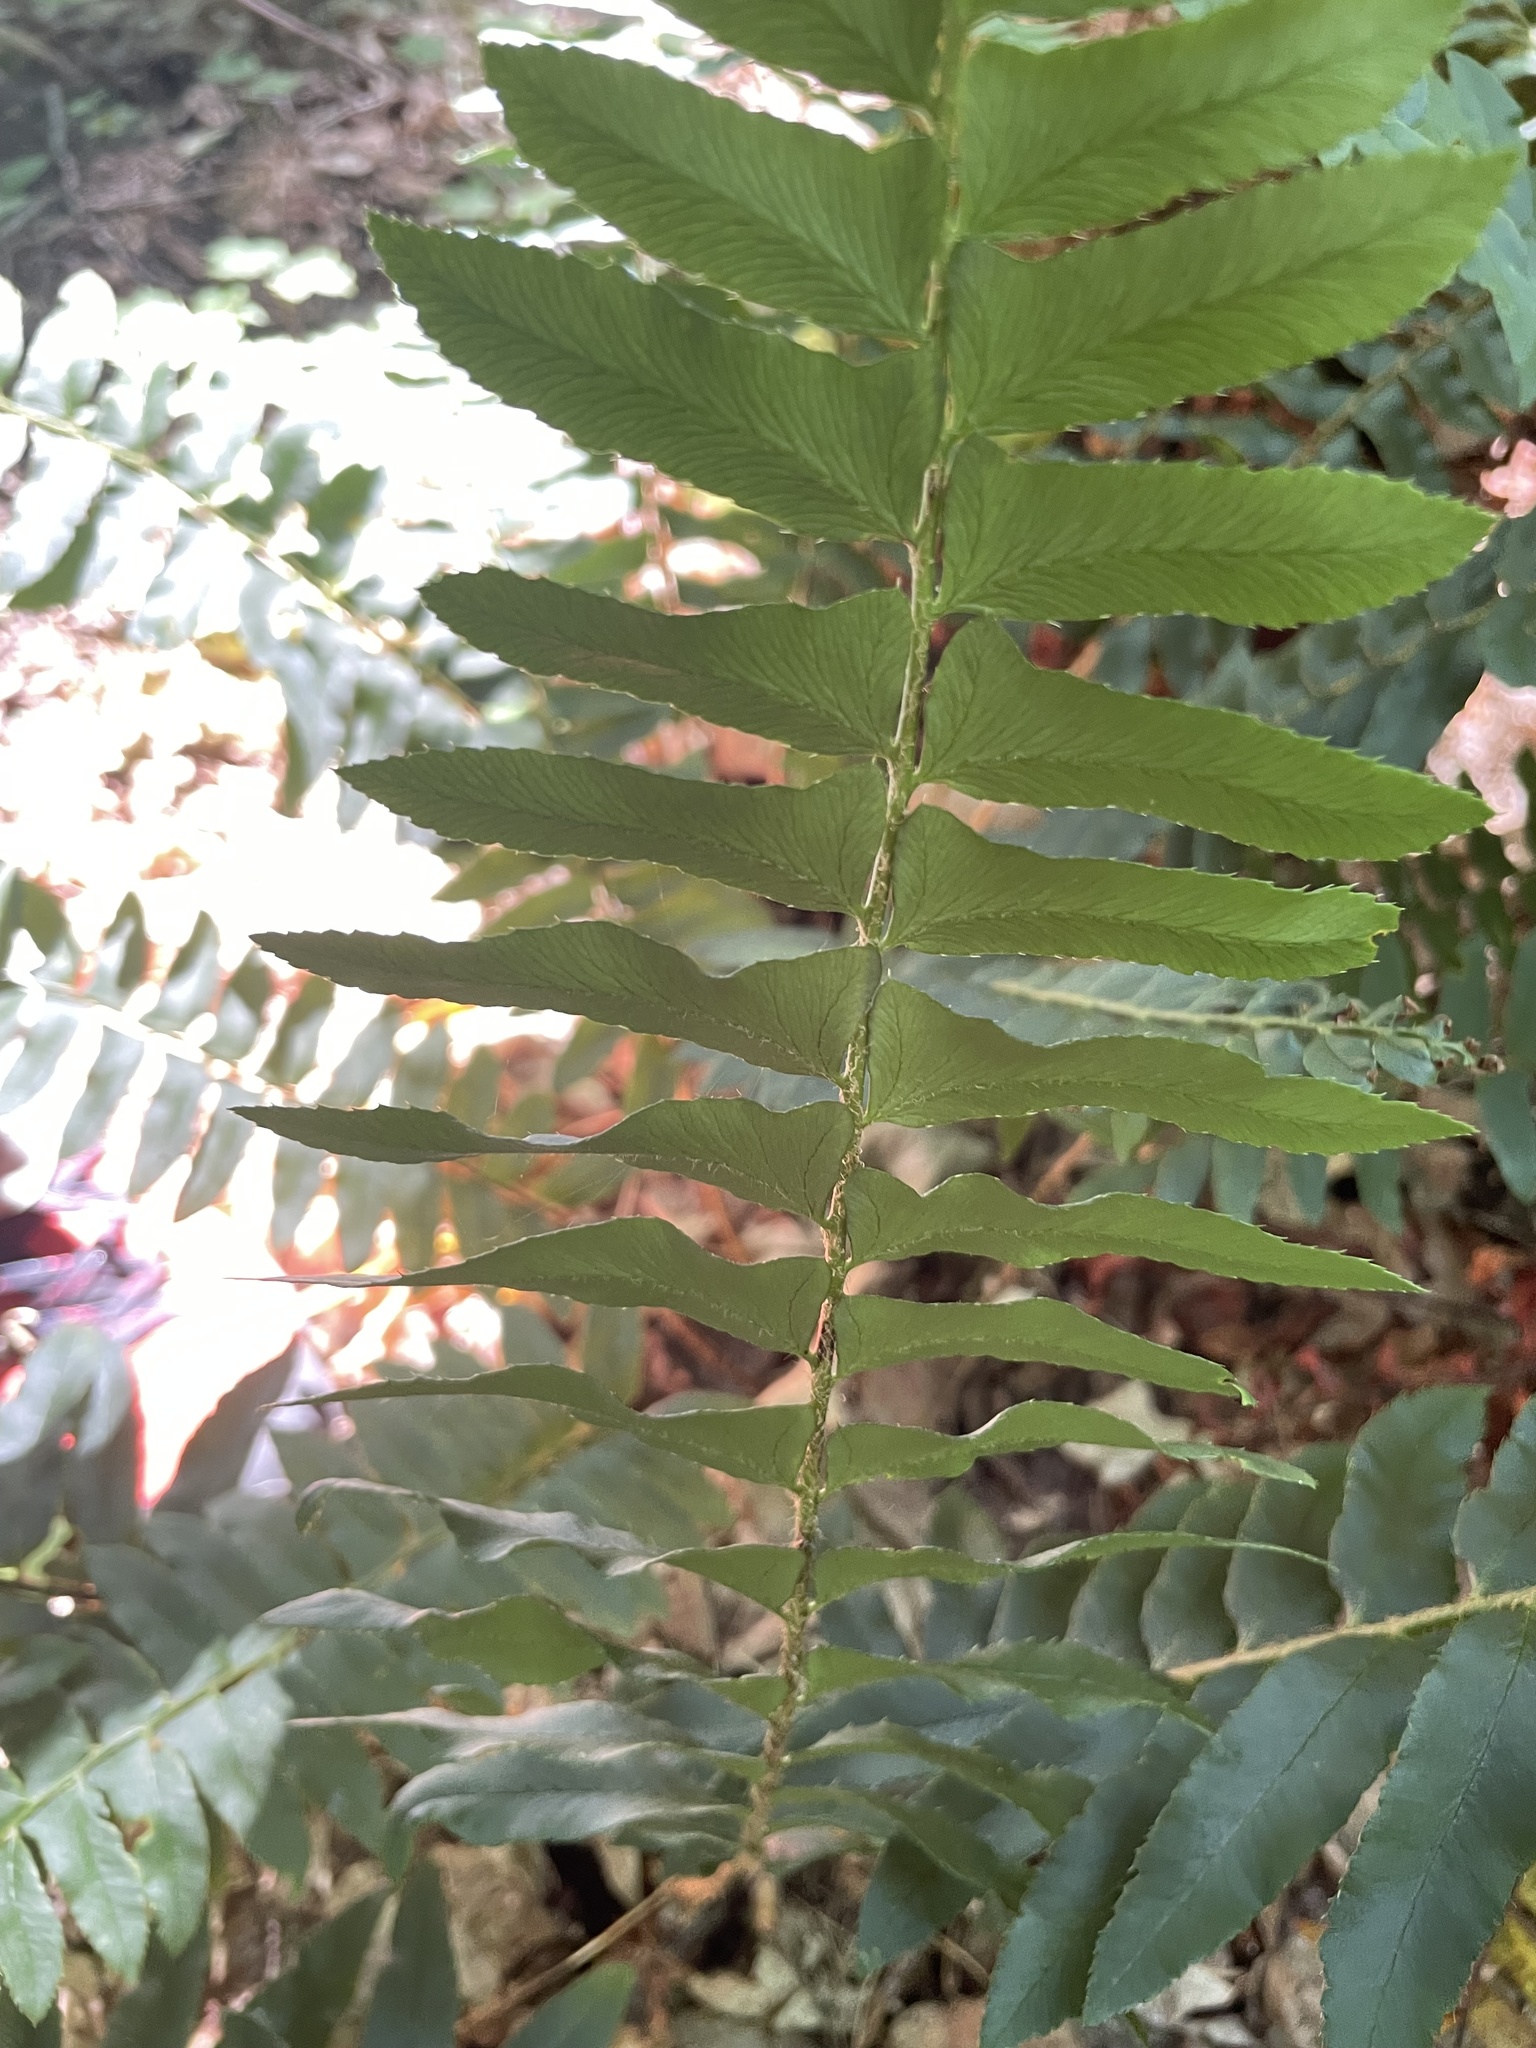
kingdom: Plantae
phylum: Tracheophyta
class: Polypodiopsida
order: Polypodiales
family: Dryopteridaceae
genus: Polystichum
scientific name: Polystichum acrostichoides
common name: Christmas fern
